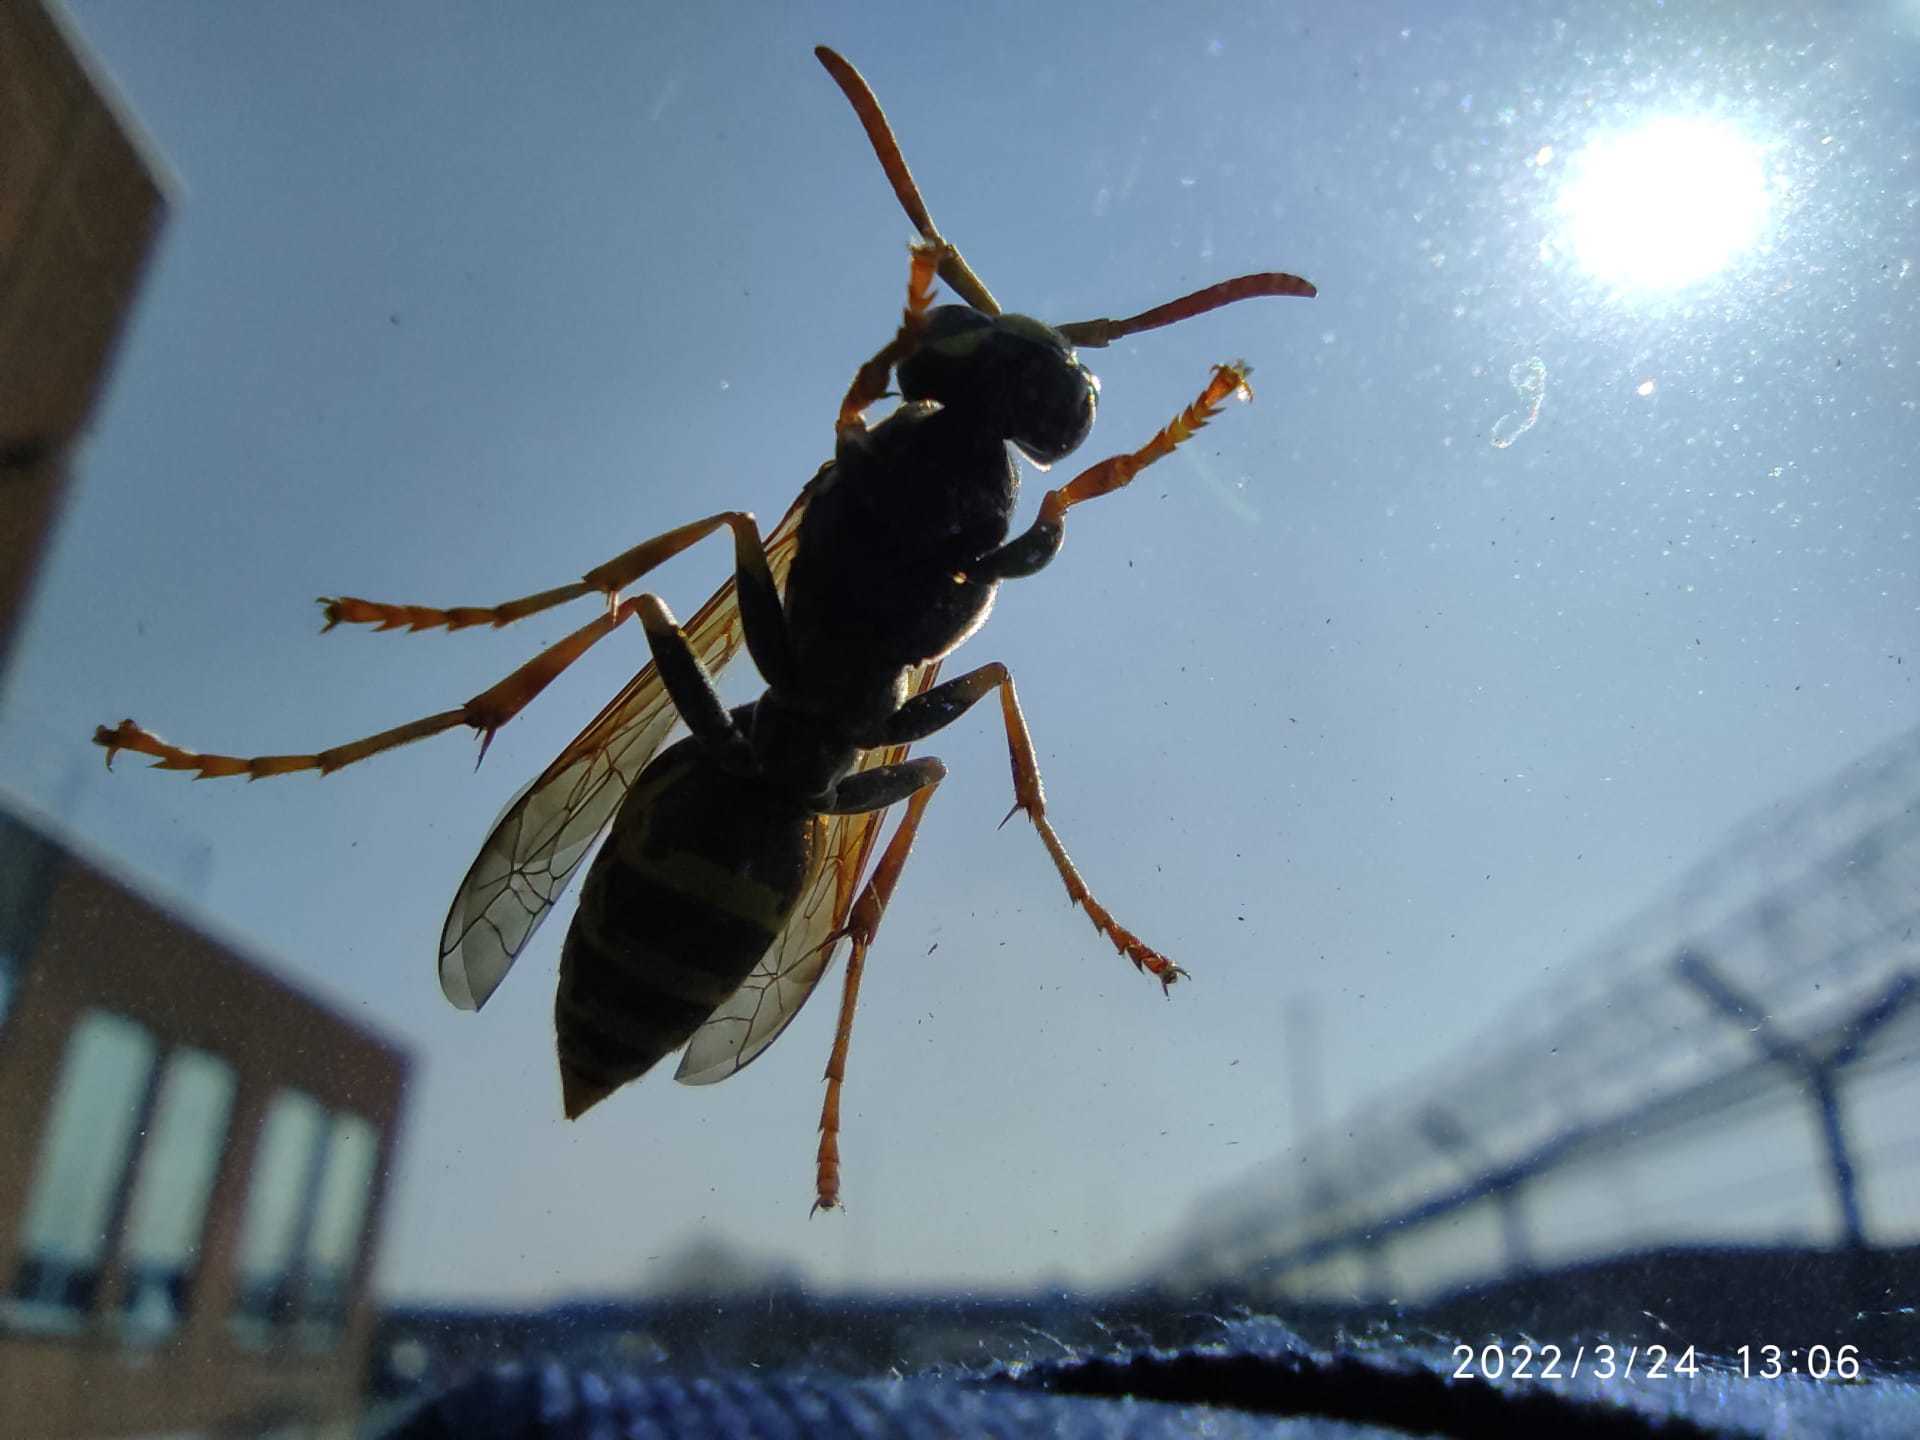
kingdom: Animalia
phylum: Arthropoda
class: Insecta
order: Hymenoptera
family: Eumenidae
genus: Polistes
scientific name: Polistes dominula
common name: Paper wasp
